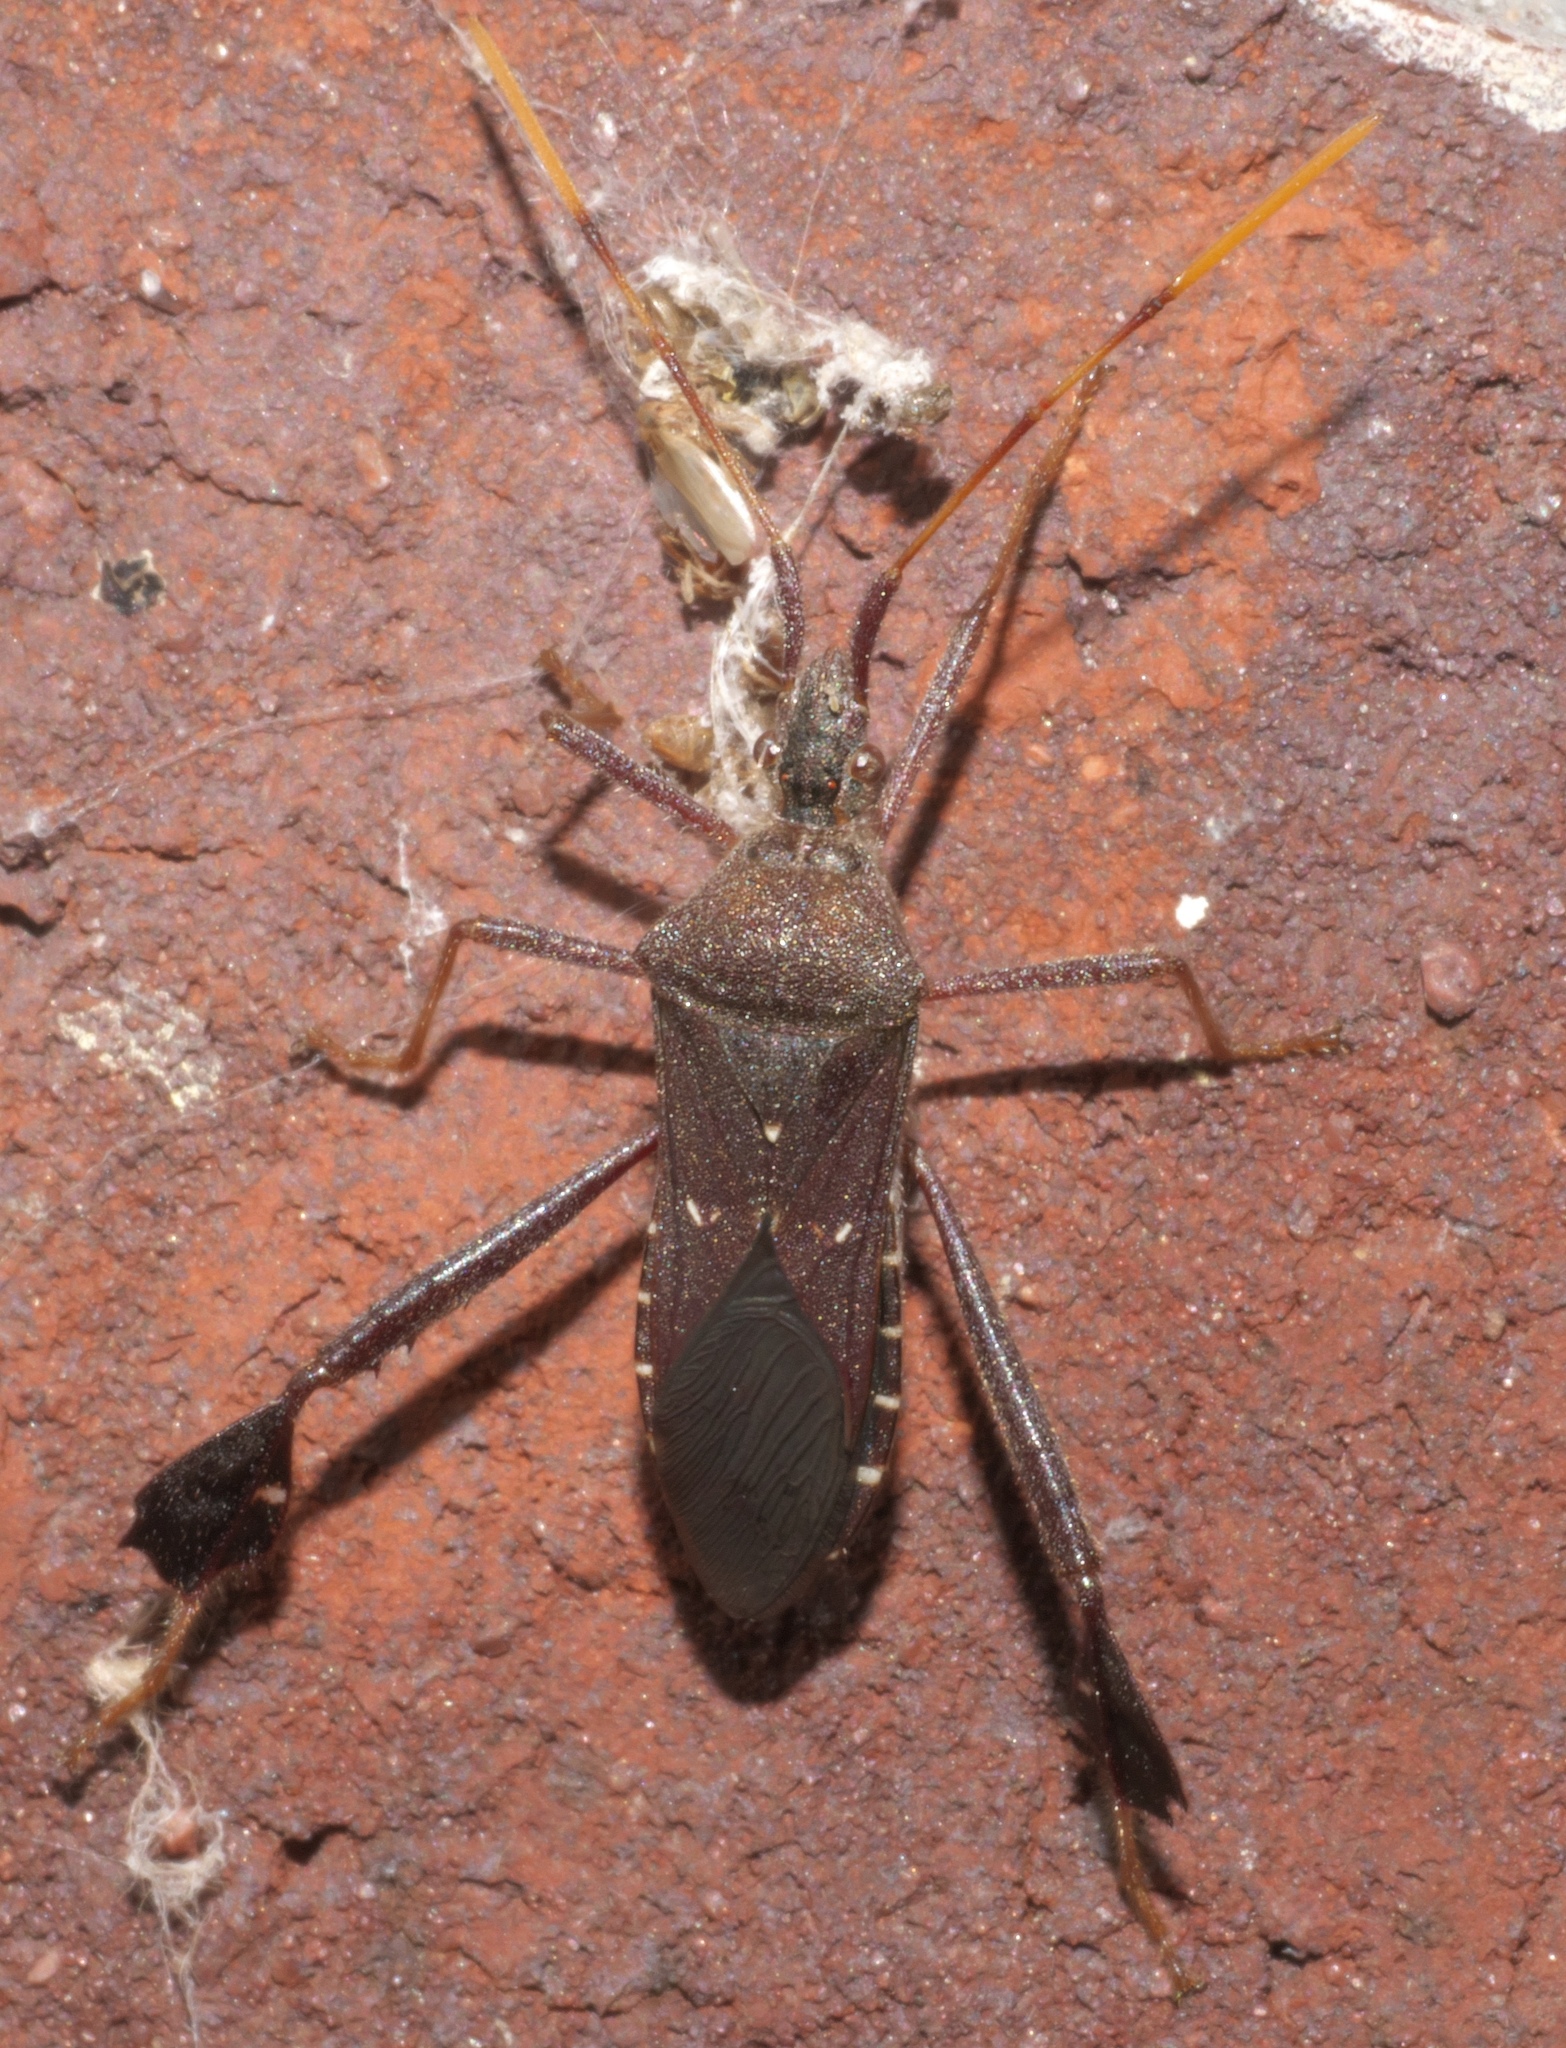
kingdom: Animalia
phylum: Arthropoda
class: Insecta
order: Hemiptera
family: Coreidae
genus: Leptoglossus
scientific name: Leptoglossus oppositus
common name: Northern leaf-footed bug
